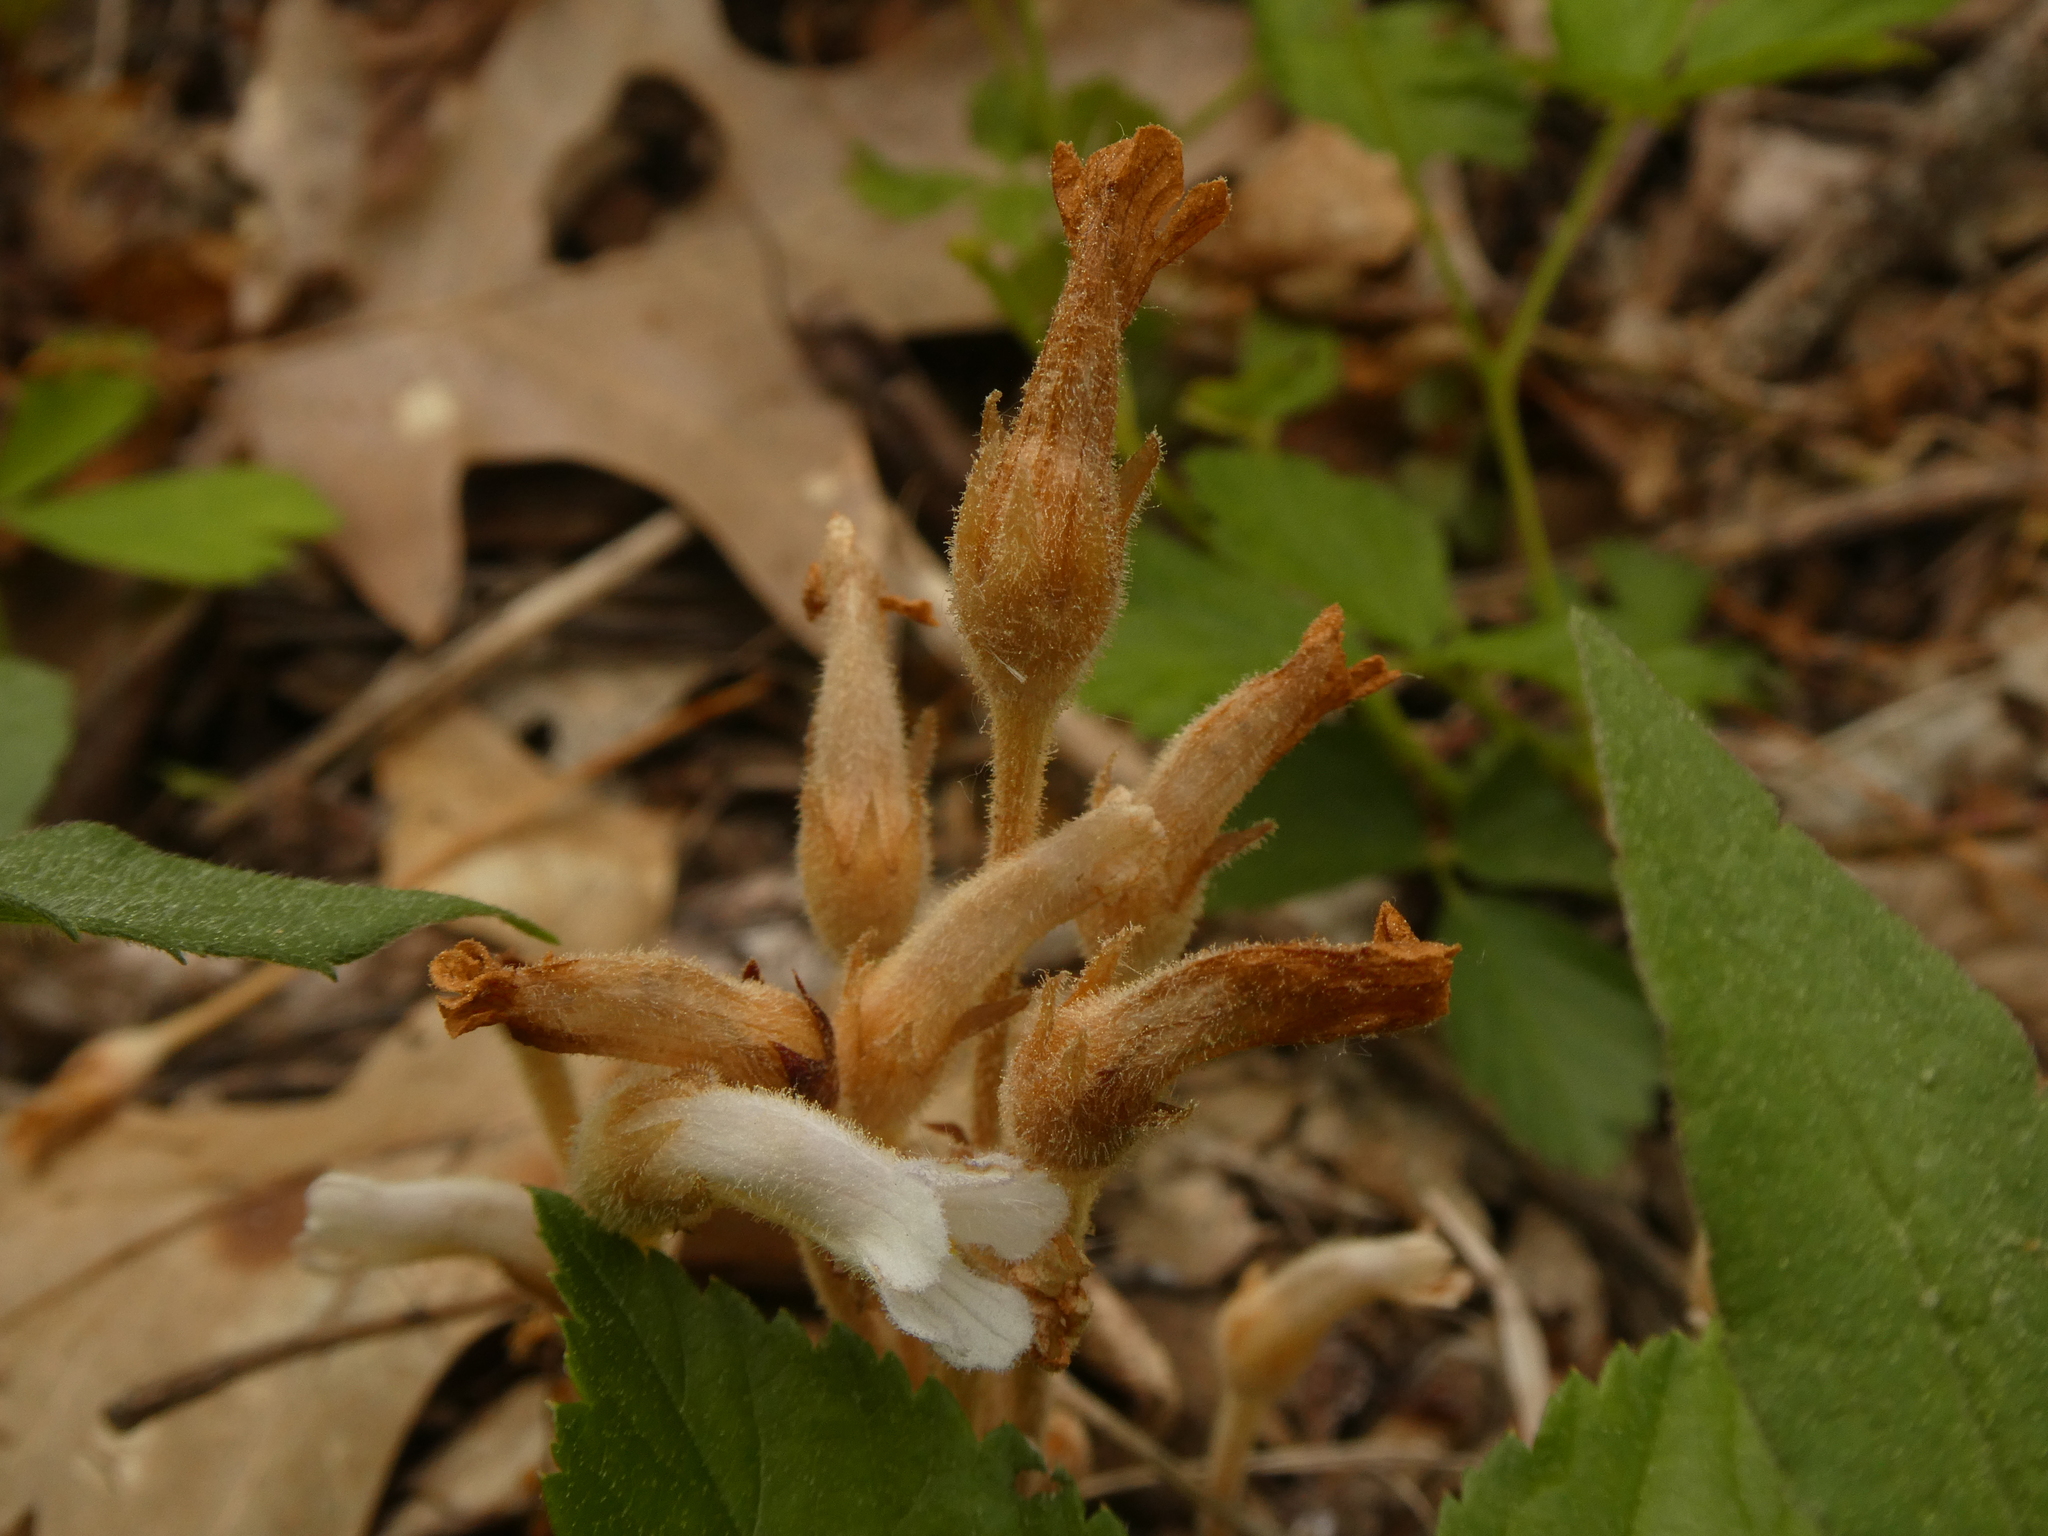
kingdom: Plantae
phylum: Tracheophyta
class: Magnoliopsida
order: Lamiales
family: Orobanchaceae
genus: Aphyllon
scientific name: Aphyllon uniflorum
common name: One-flowered broomrape
